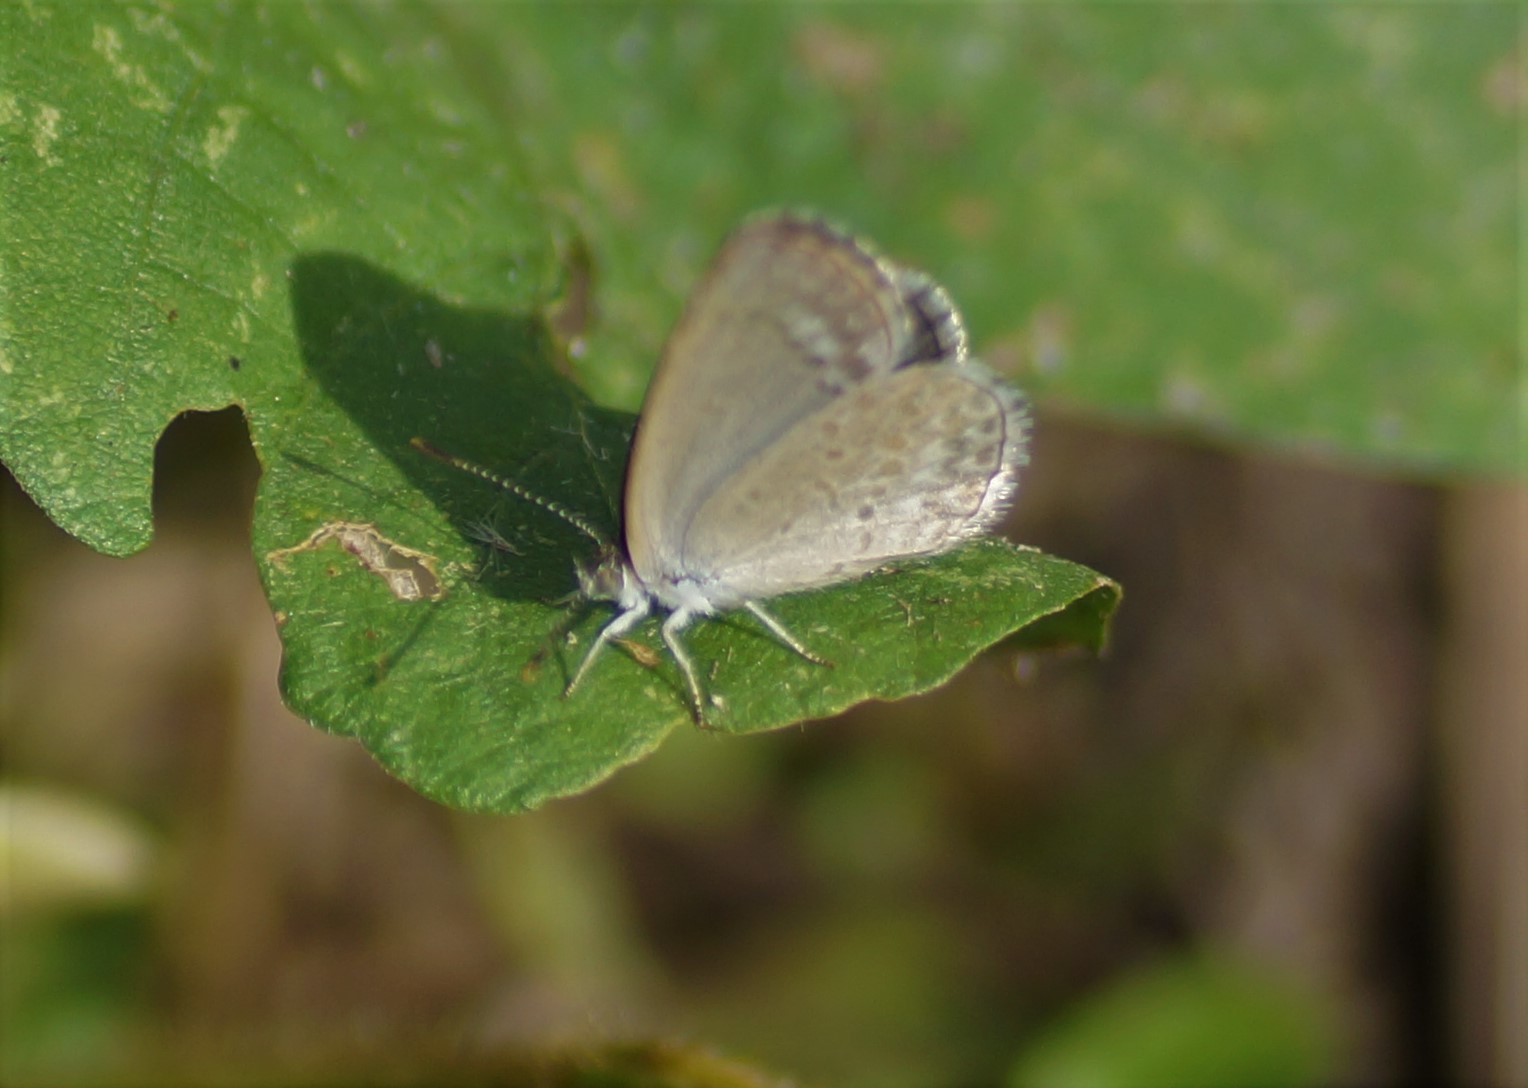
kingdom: Animalia
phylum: Arthropoda
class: Insecta
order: Lepidoptera
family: Lycaenidae
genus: Zizina
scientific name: Zizina otis
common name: Lesser grass blue
